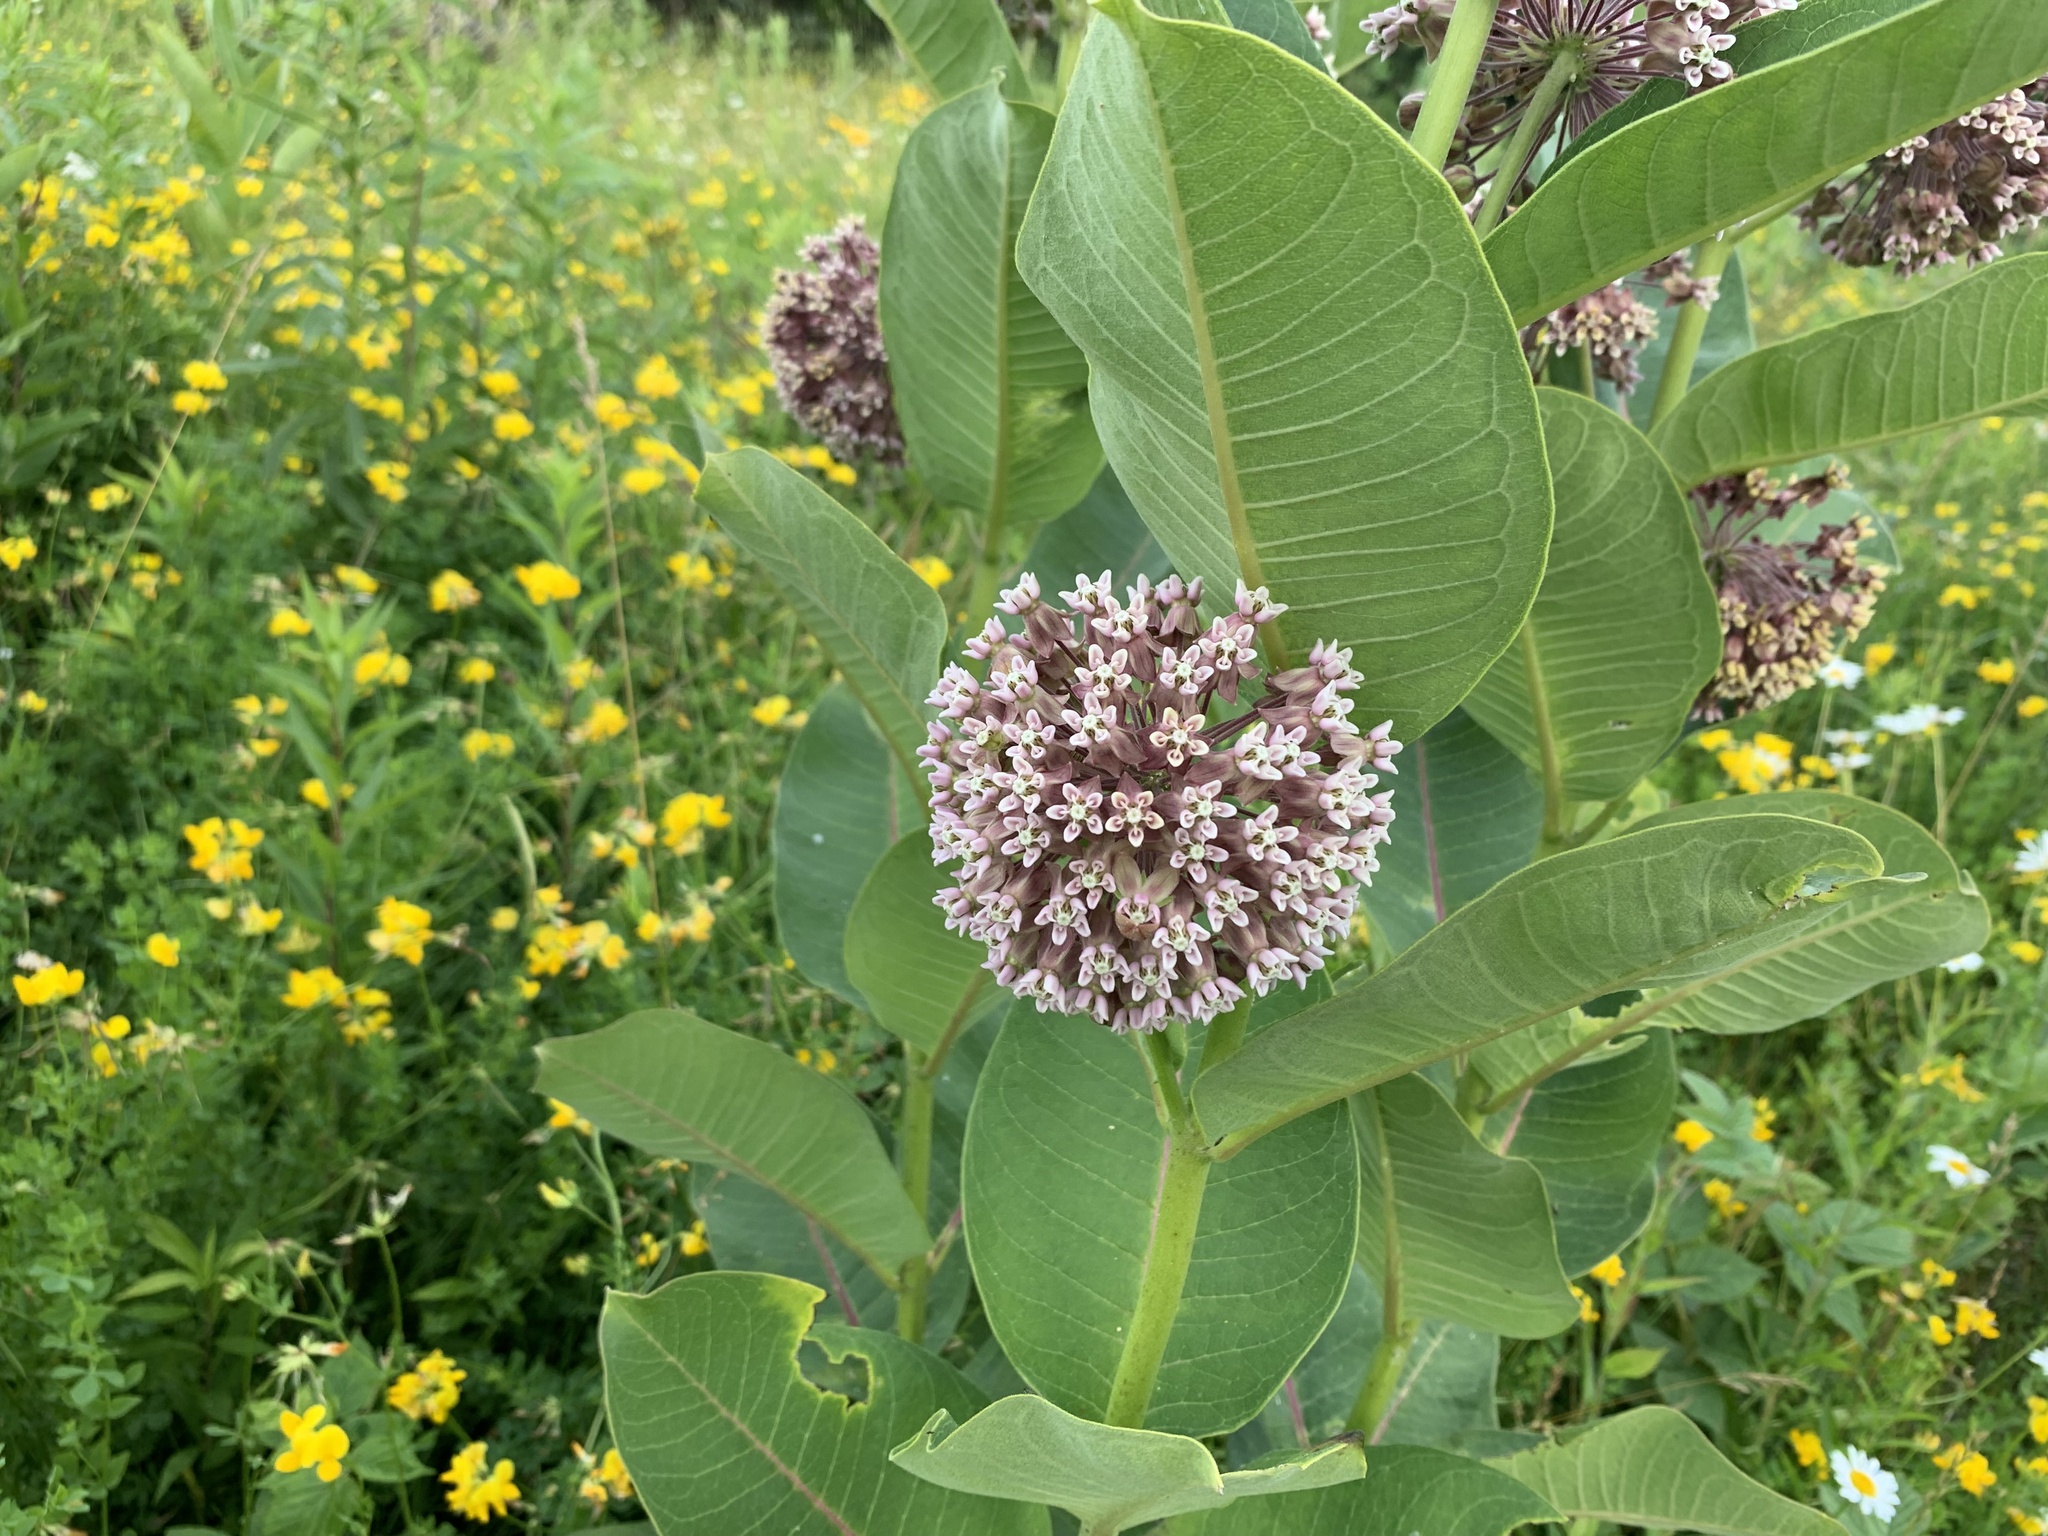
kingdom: Plantae
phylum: Tracheophyta
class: Magnoliopsida
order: Gentianales
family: Apocynaceae
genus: Asclepias
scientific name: Asclepias syriaca
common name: Common milkweed
